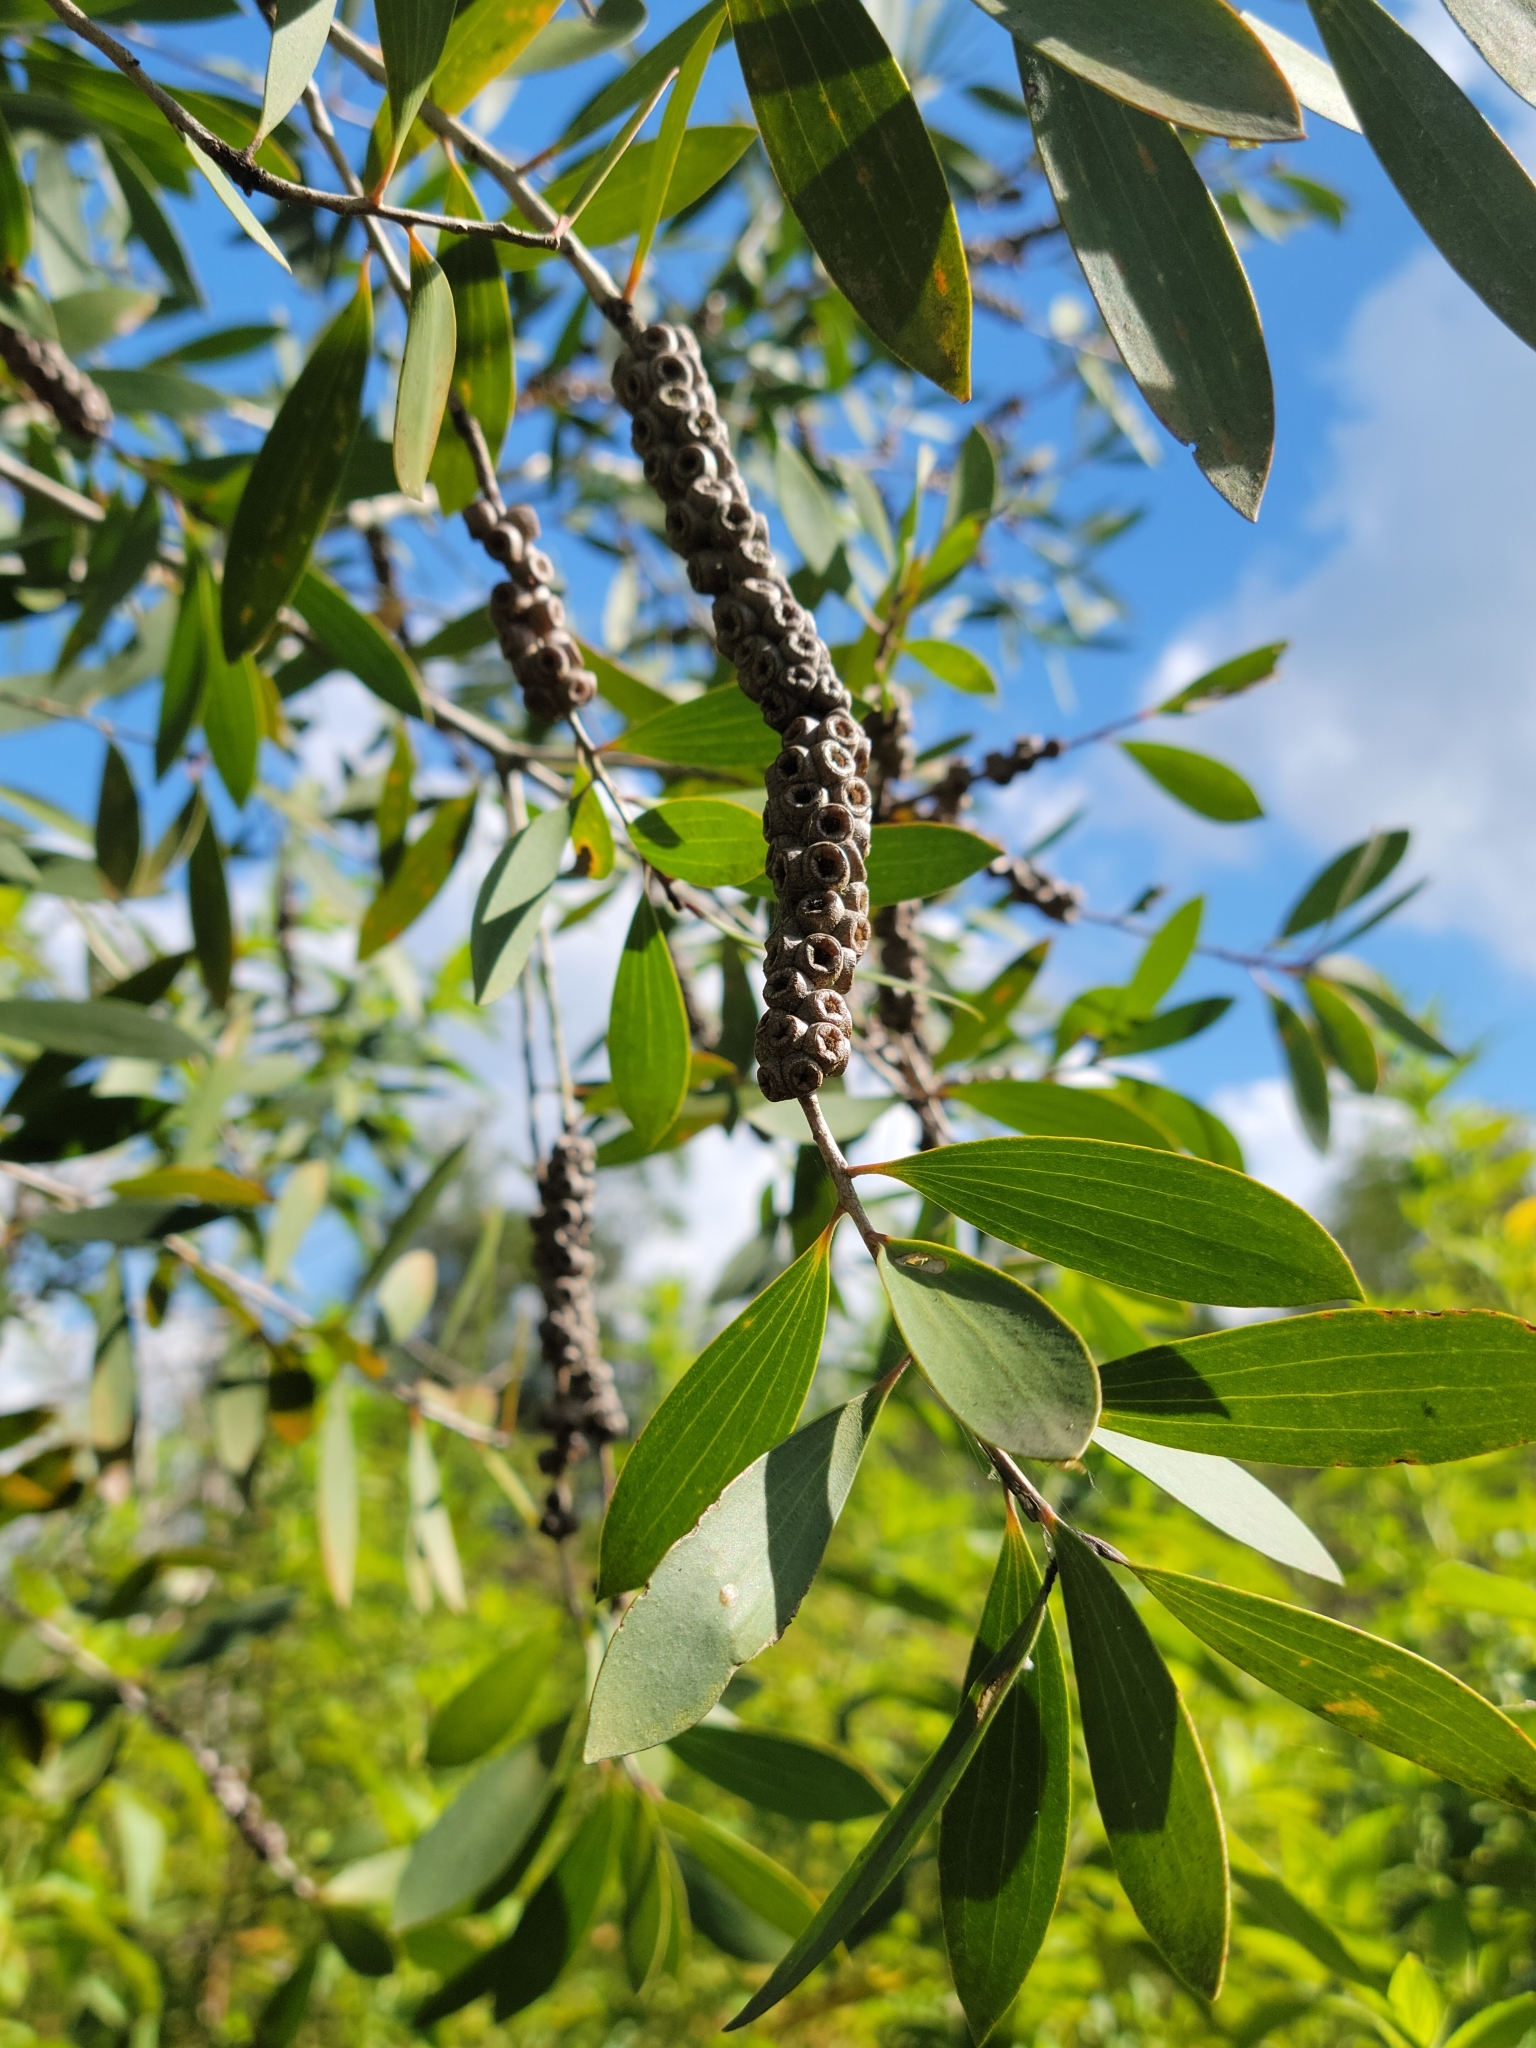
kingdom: Plantae
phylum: Tracheophyta
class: Magnoliopsida
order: Myrtales
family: Myrtaceae
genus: Melaleuca
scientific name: Melaleuca quinquenervia
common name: Punktree
